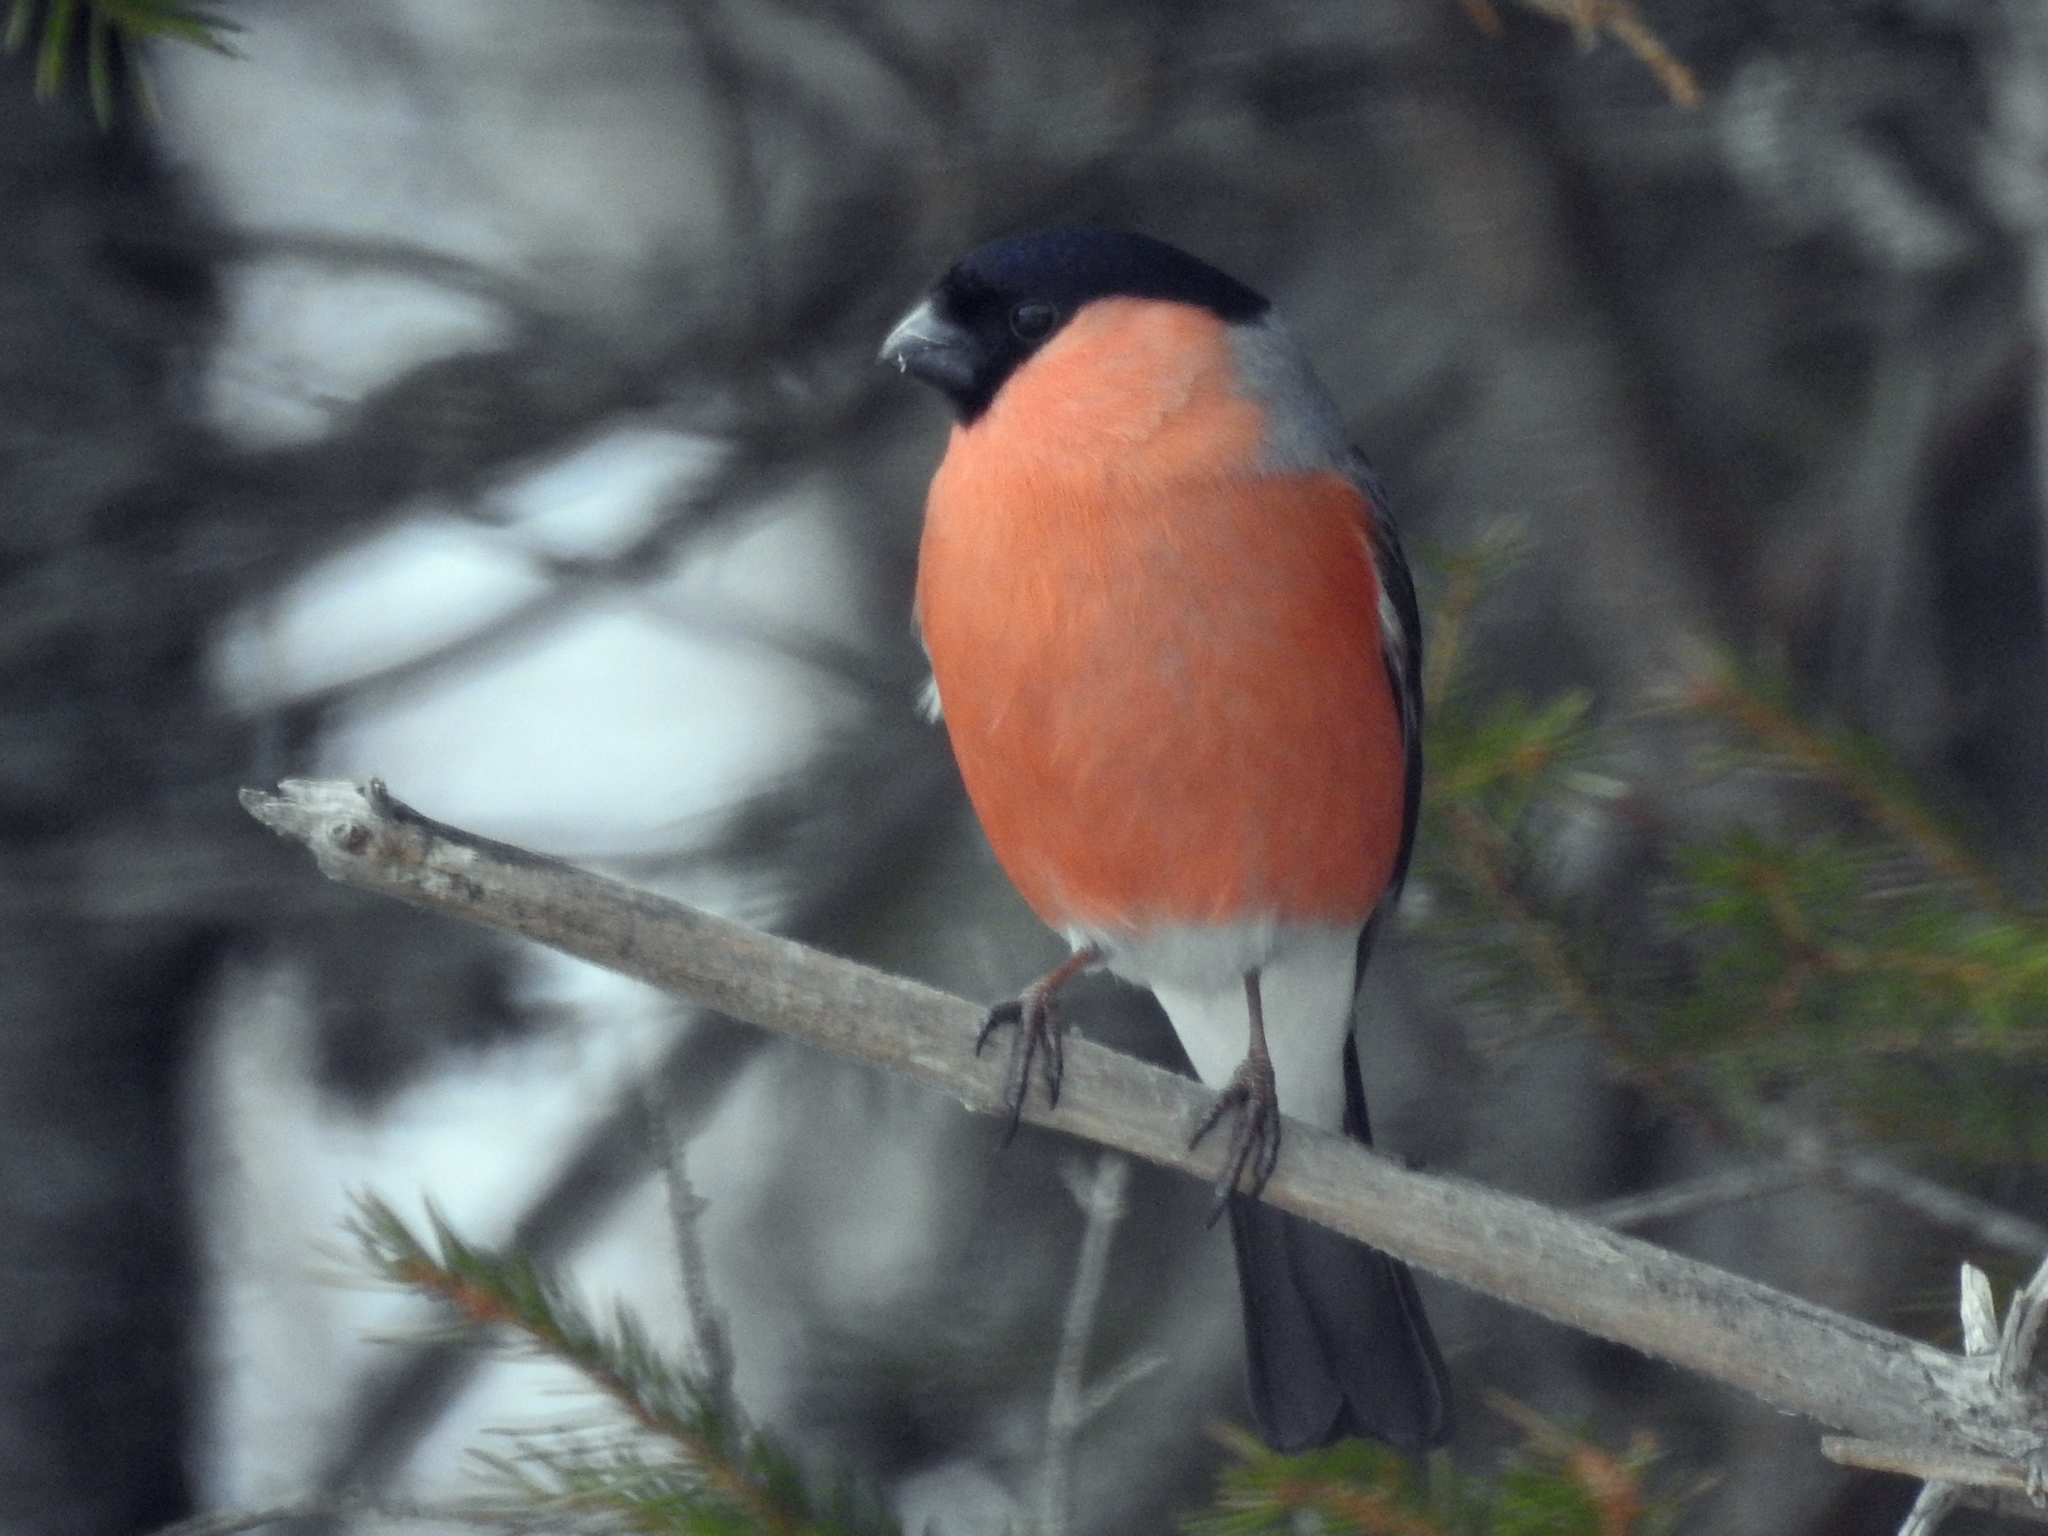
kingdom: Animalia
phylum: Chordata
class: Aves
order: Passeriformes
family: Fringillidae
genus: Pyrrhula
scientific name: Pyrrhula pyrrhula
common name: Eurasian bullfinch
